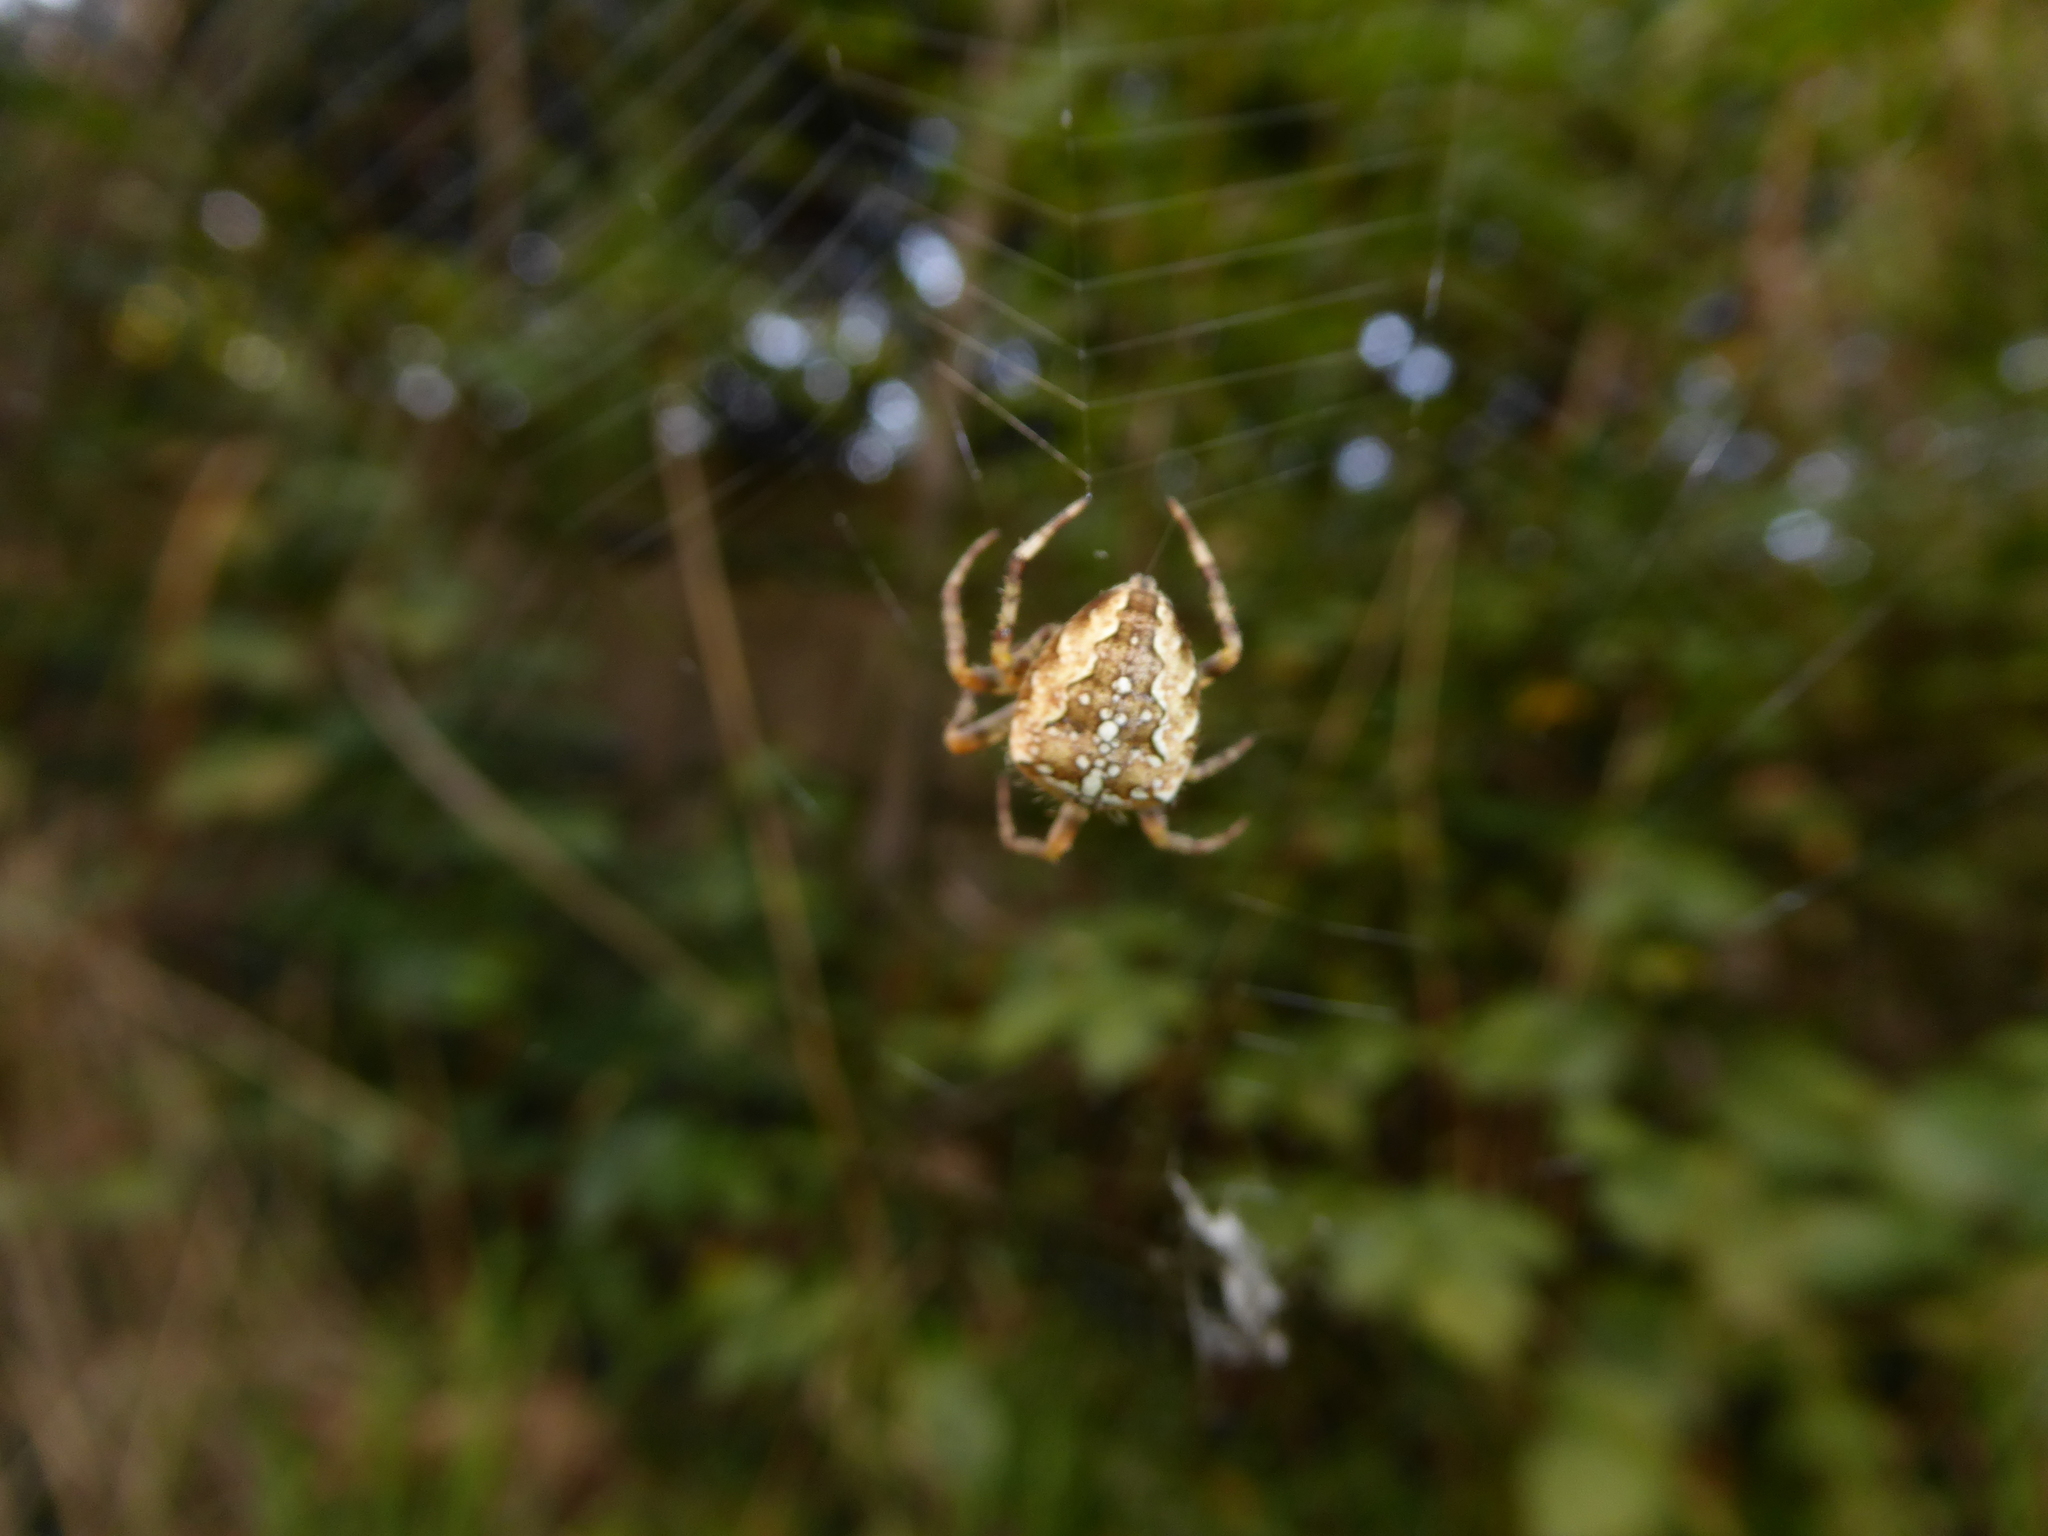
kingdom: Animalia
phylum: Arthropoda
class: Arachnida
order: Araneae
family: Araneidae
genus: Araneus
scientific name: Araneus diadematus
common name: Cross orbweaver
